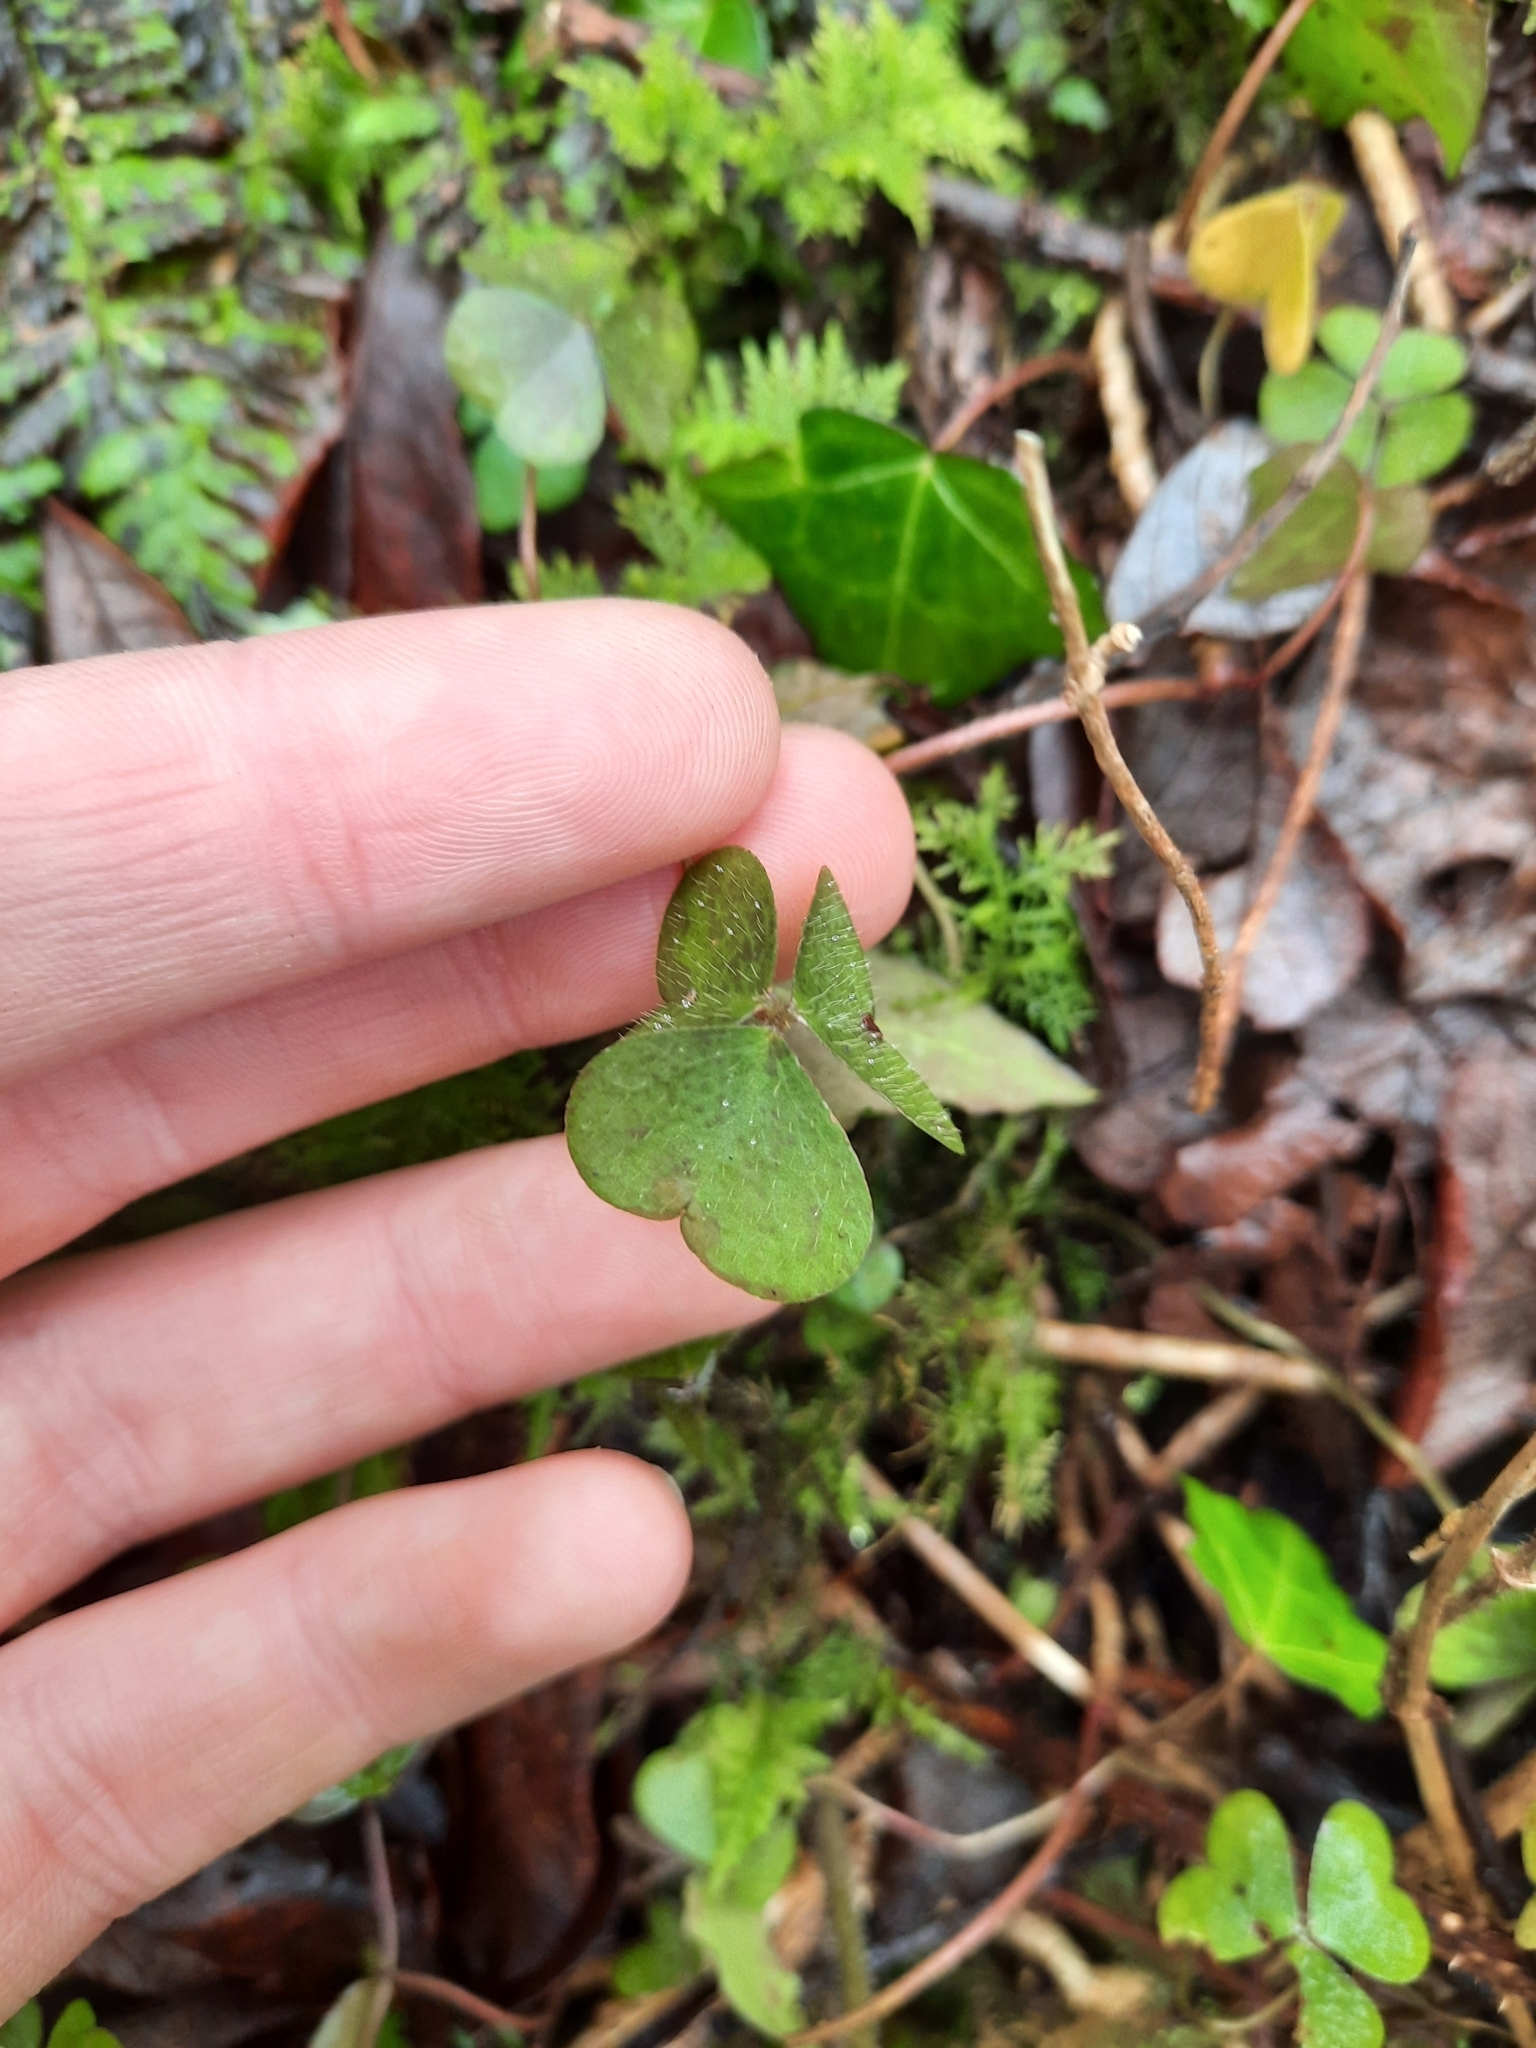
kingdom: Plantae
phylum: Tracheophyta
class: Magnoliopsida
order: Oxalidales
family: Oxalidaceae
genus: Oxalis
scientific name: Oxalis acetosella
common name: Wood-sorrel
